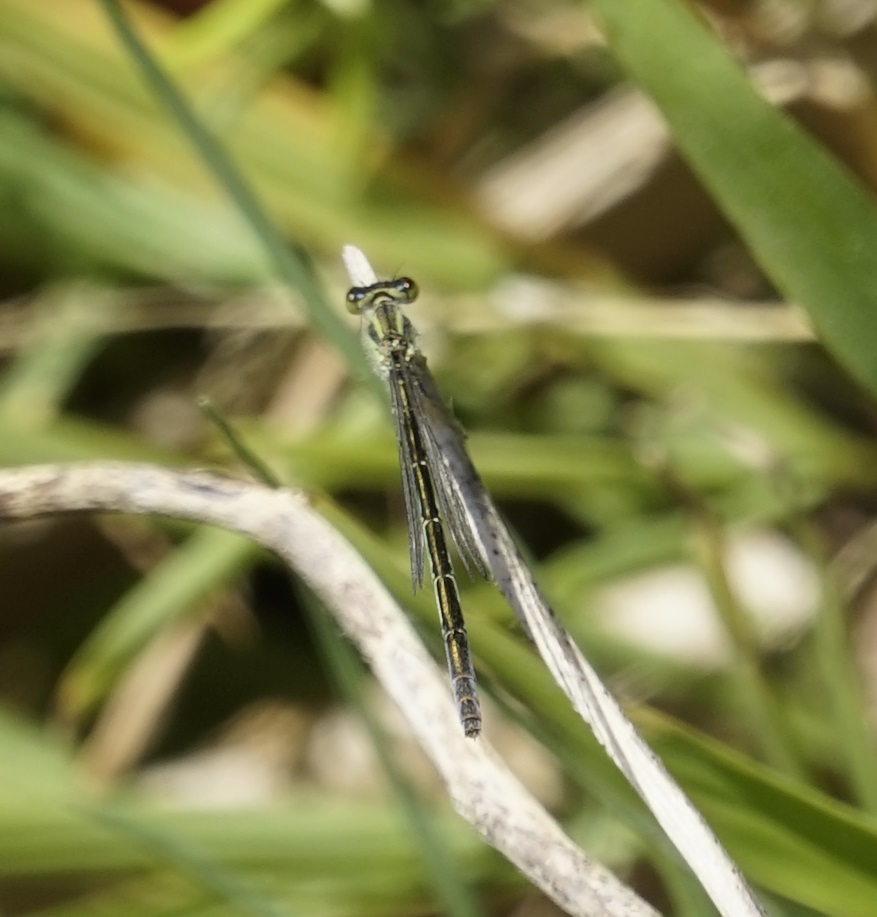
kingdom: Animalia
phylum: Arthropoda
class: Insecta
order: Odonata
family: Coenagrionidae
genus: Ischnura
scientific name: Ischnura aurora
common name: Gossamer damselfly
